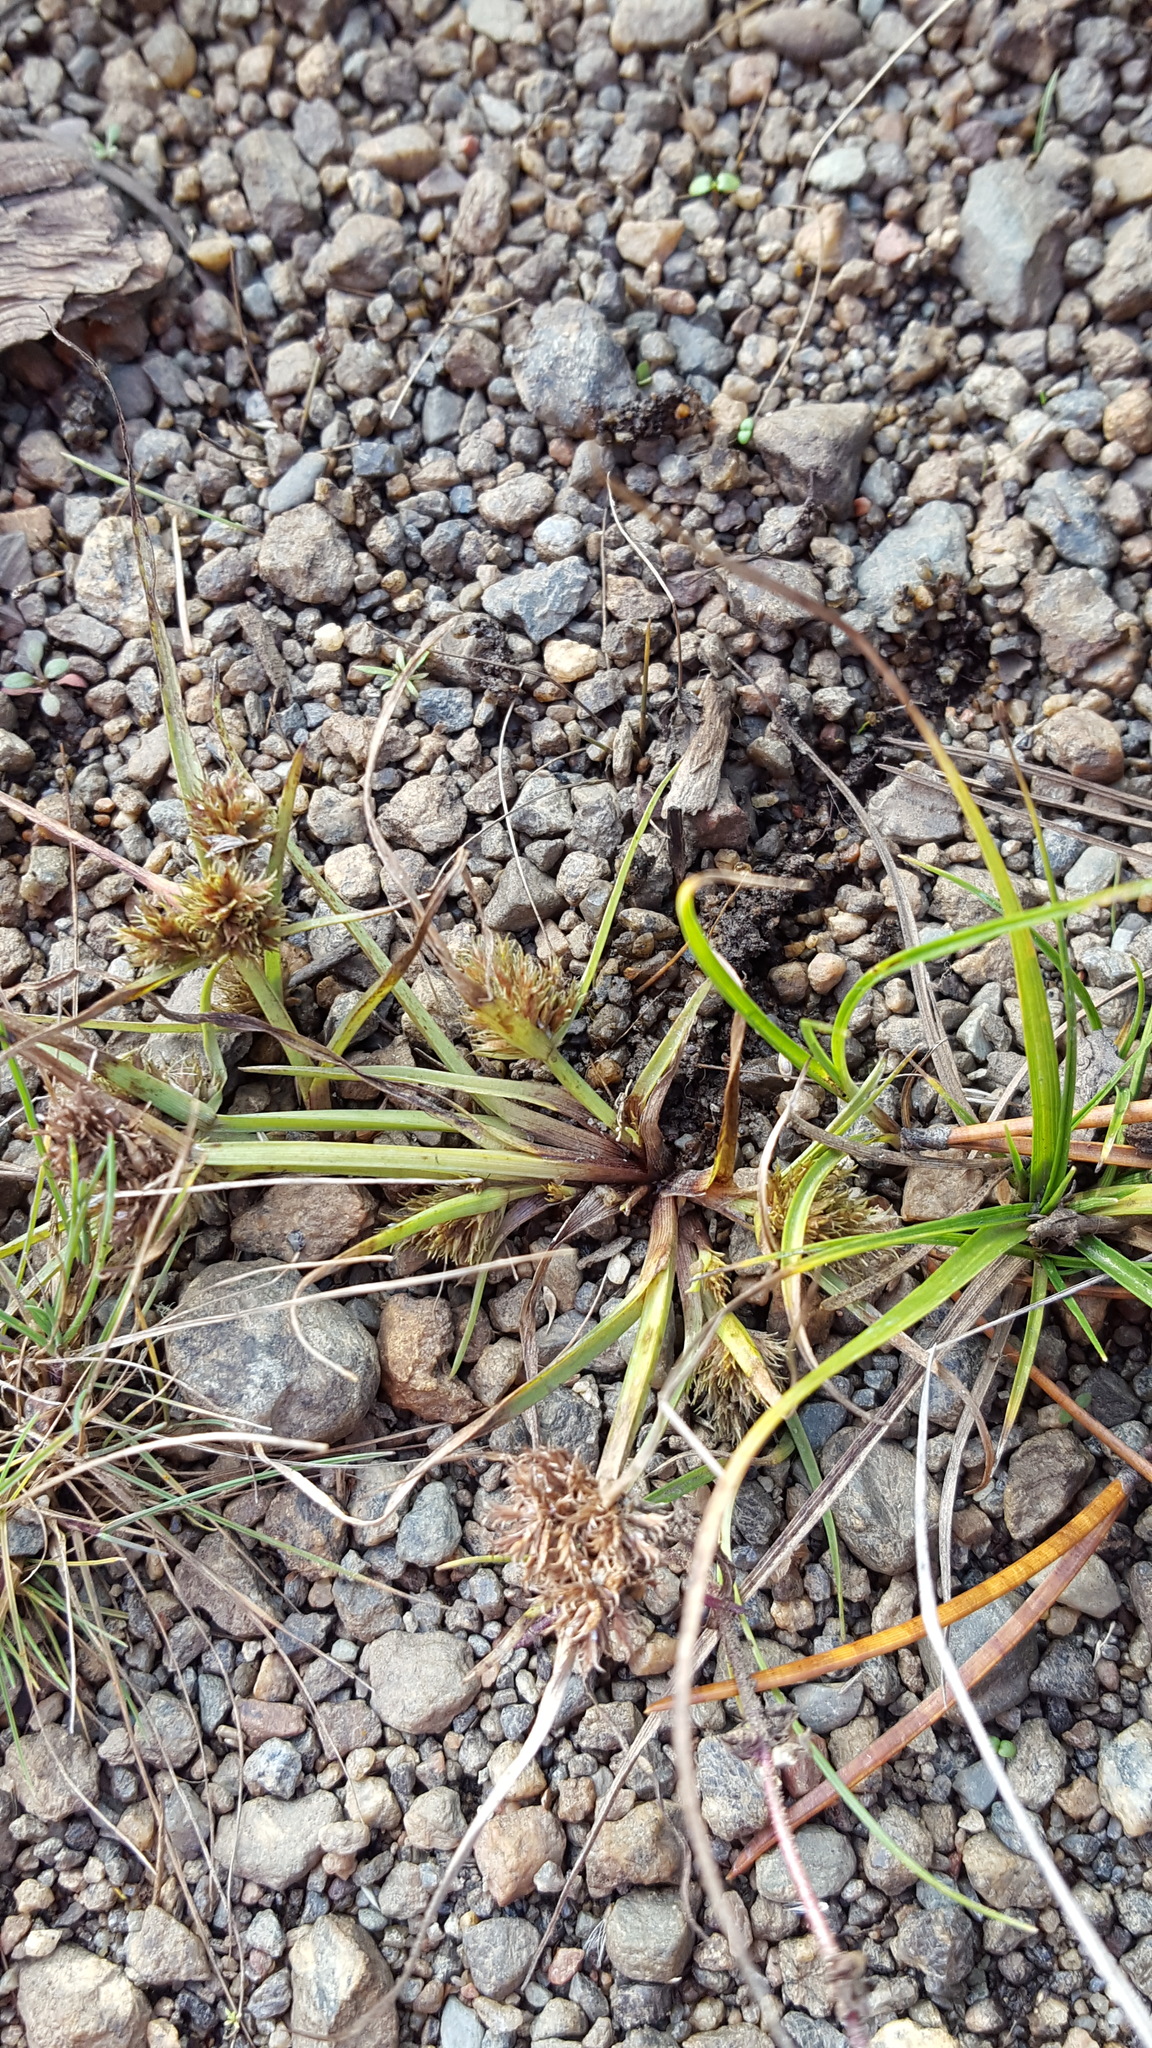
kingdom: Plantae
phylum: Tracheophyta
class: Liliopsida
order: Poales
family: Cyperaceae
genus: Cyperus
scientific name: Cyperus squarrosus
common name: Awned cyperus
